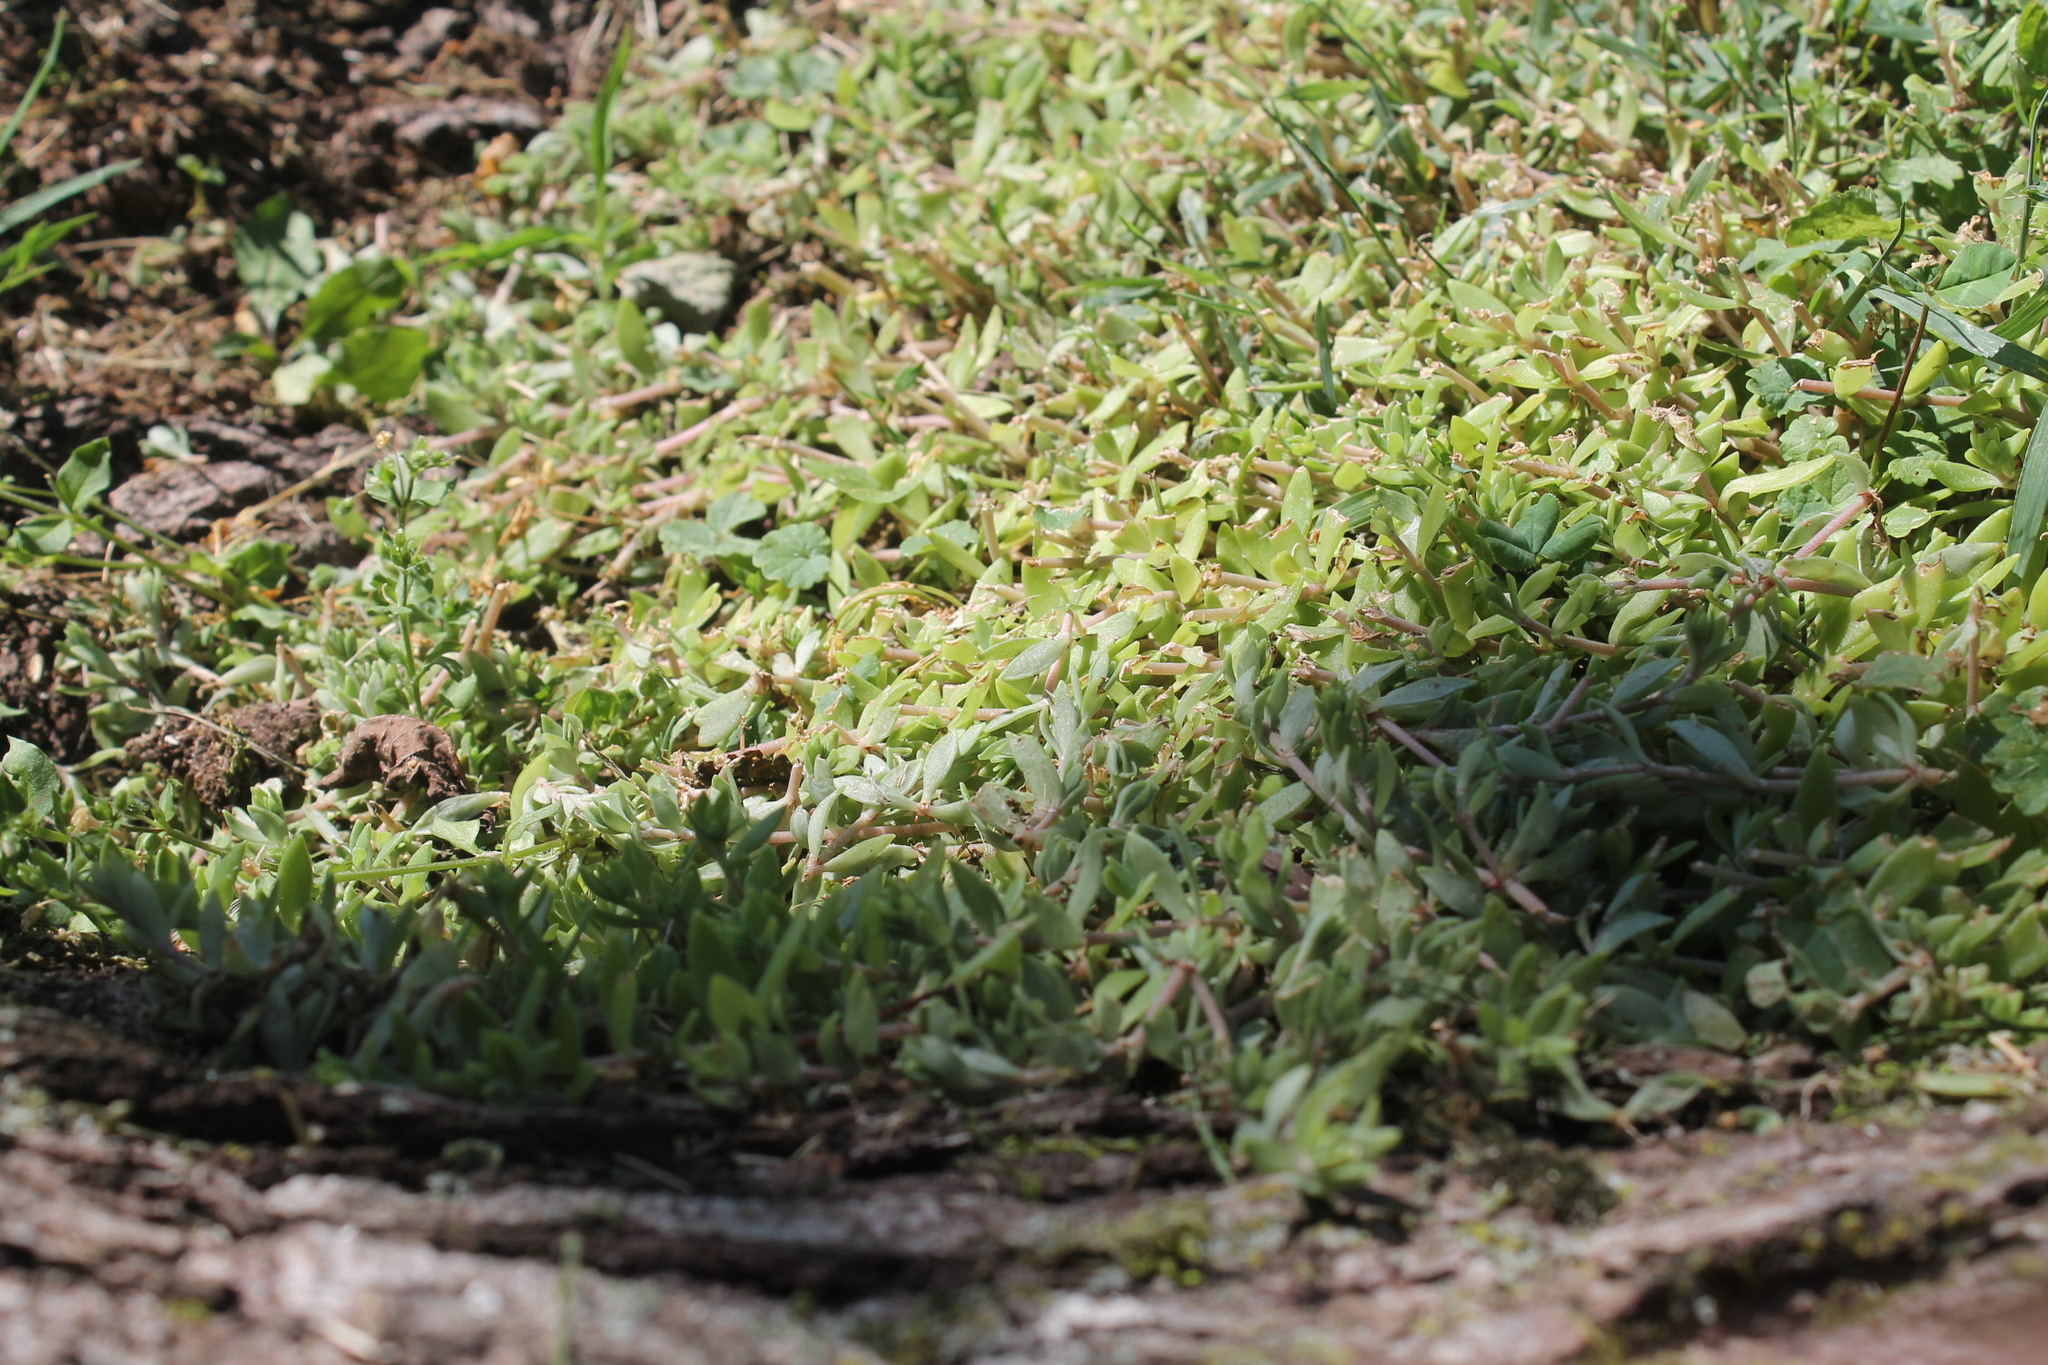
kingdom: Plantae
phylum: Tracheophyta
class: Magnoliopsida
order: Saxifragales
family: Crassulaceae
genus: Sedum
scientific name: Sedum sarmentosum
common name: Stringy stonecrop
